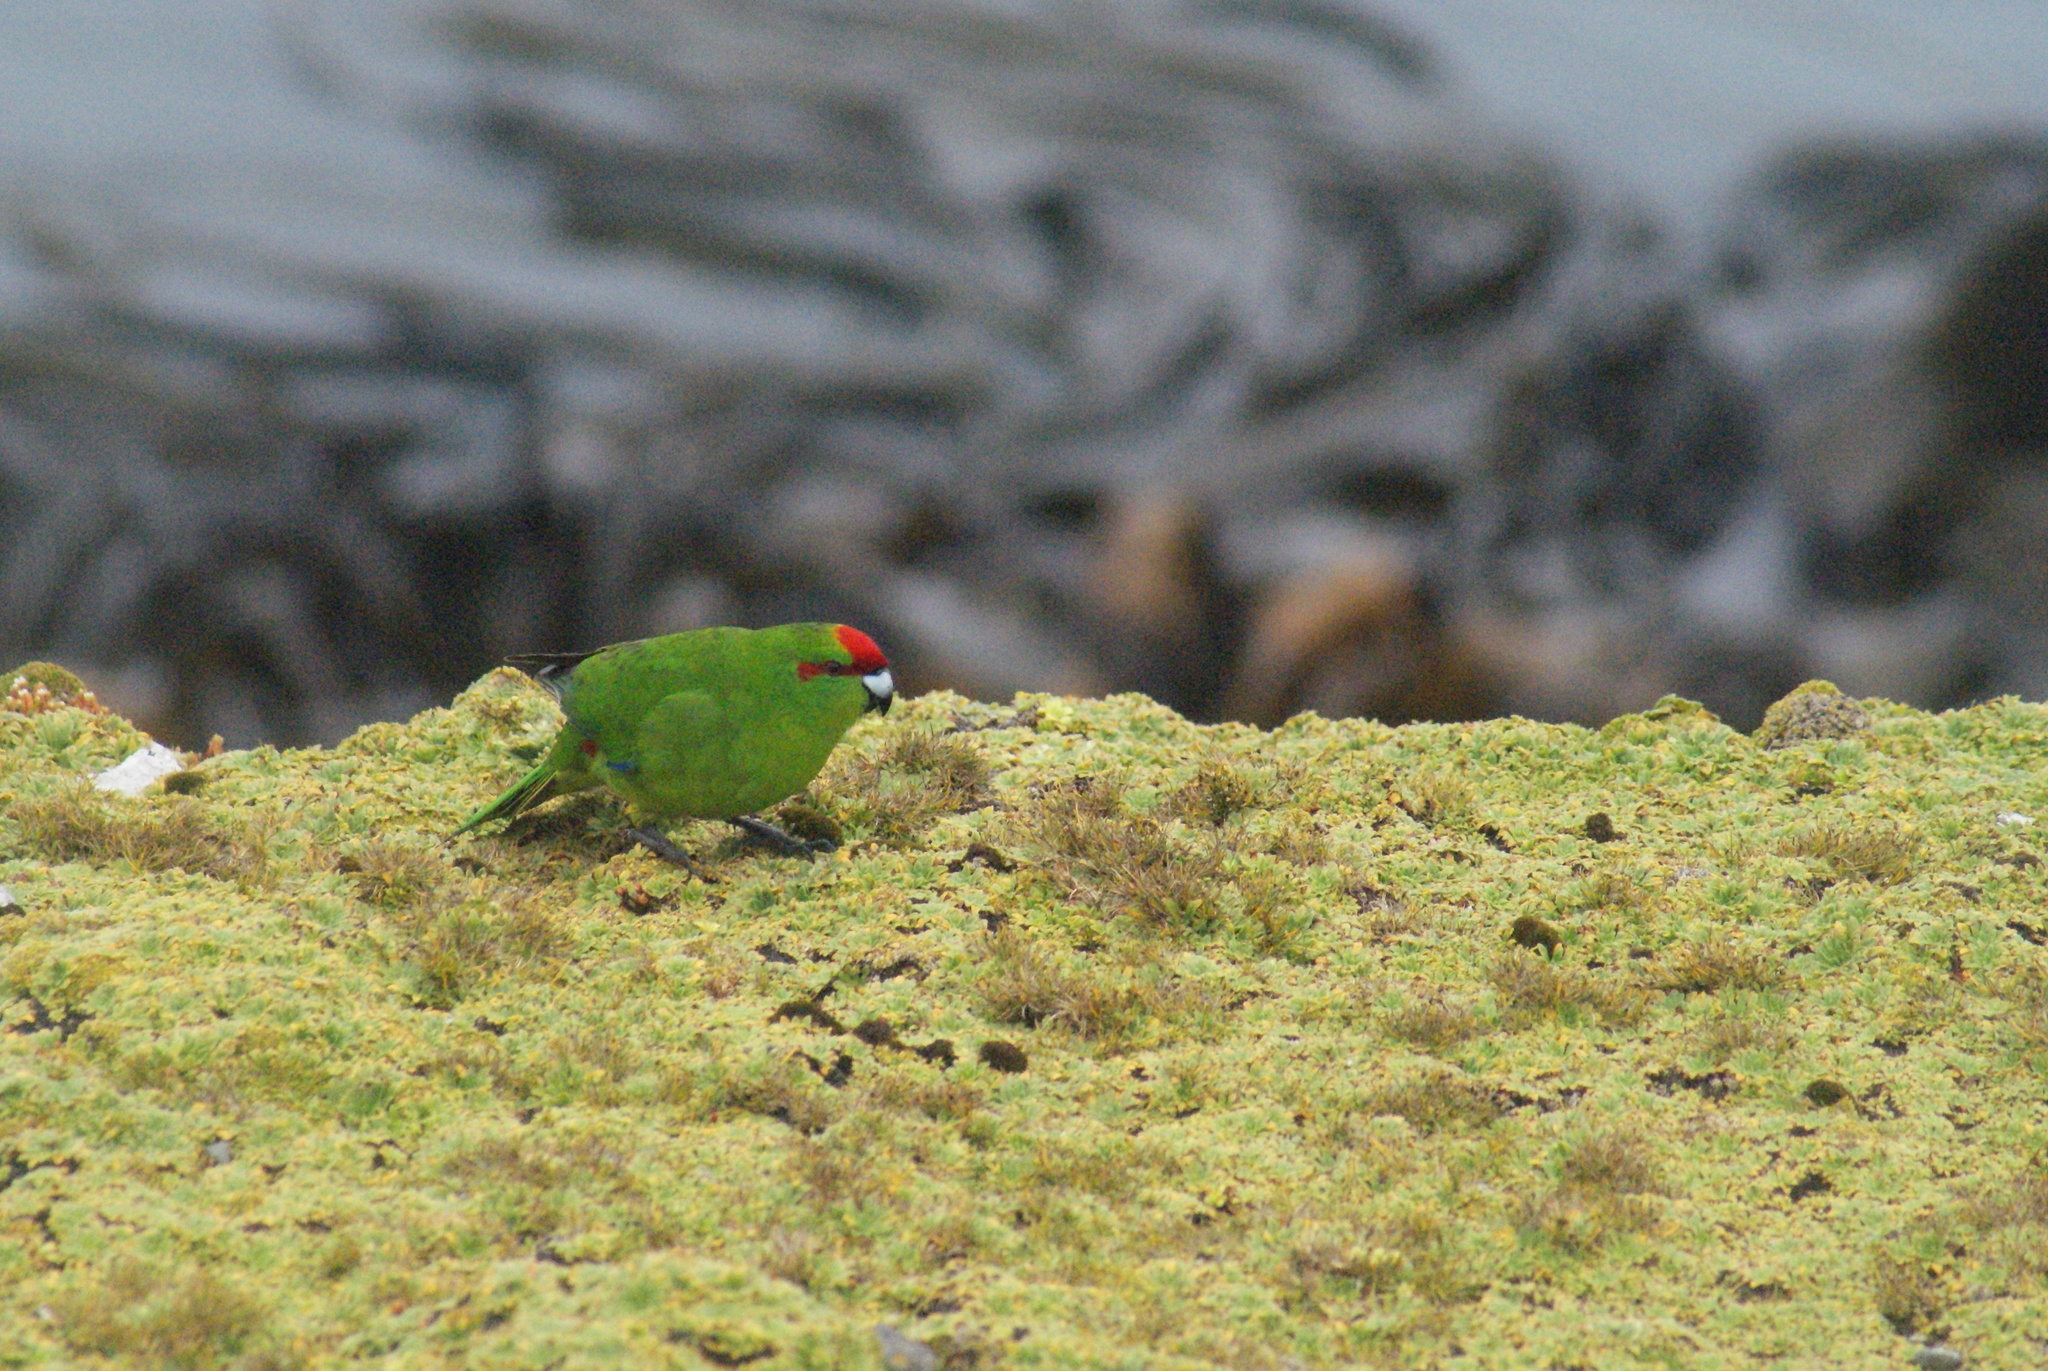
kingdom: Animalia
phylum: Chordata
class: Aves
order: Psittaciformes
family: Psittacidae
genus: Cyanoramphus
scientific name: Cyanoramphus novaezelandiae
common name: Red-fronted parakeet
